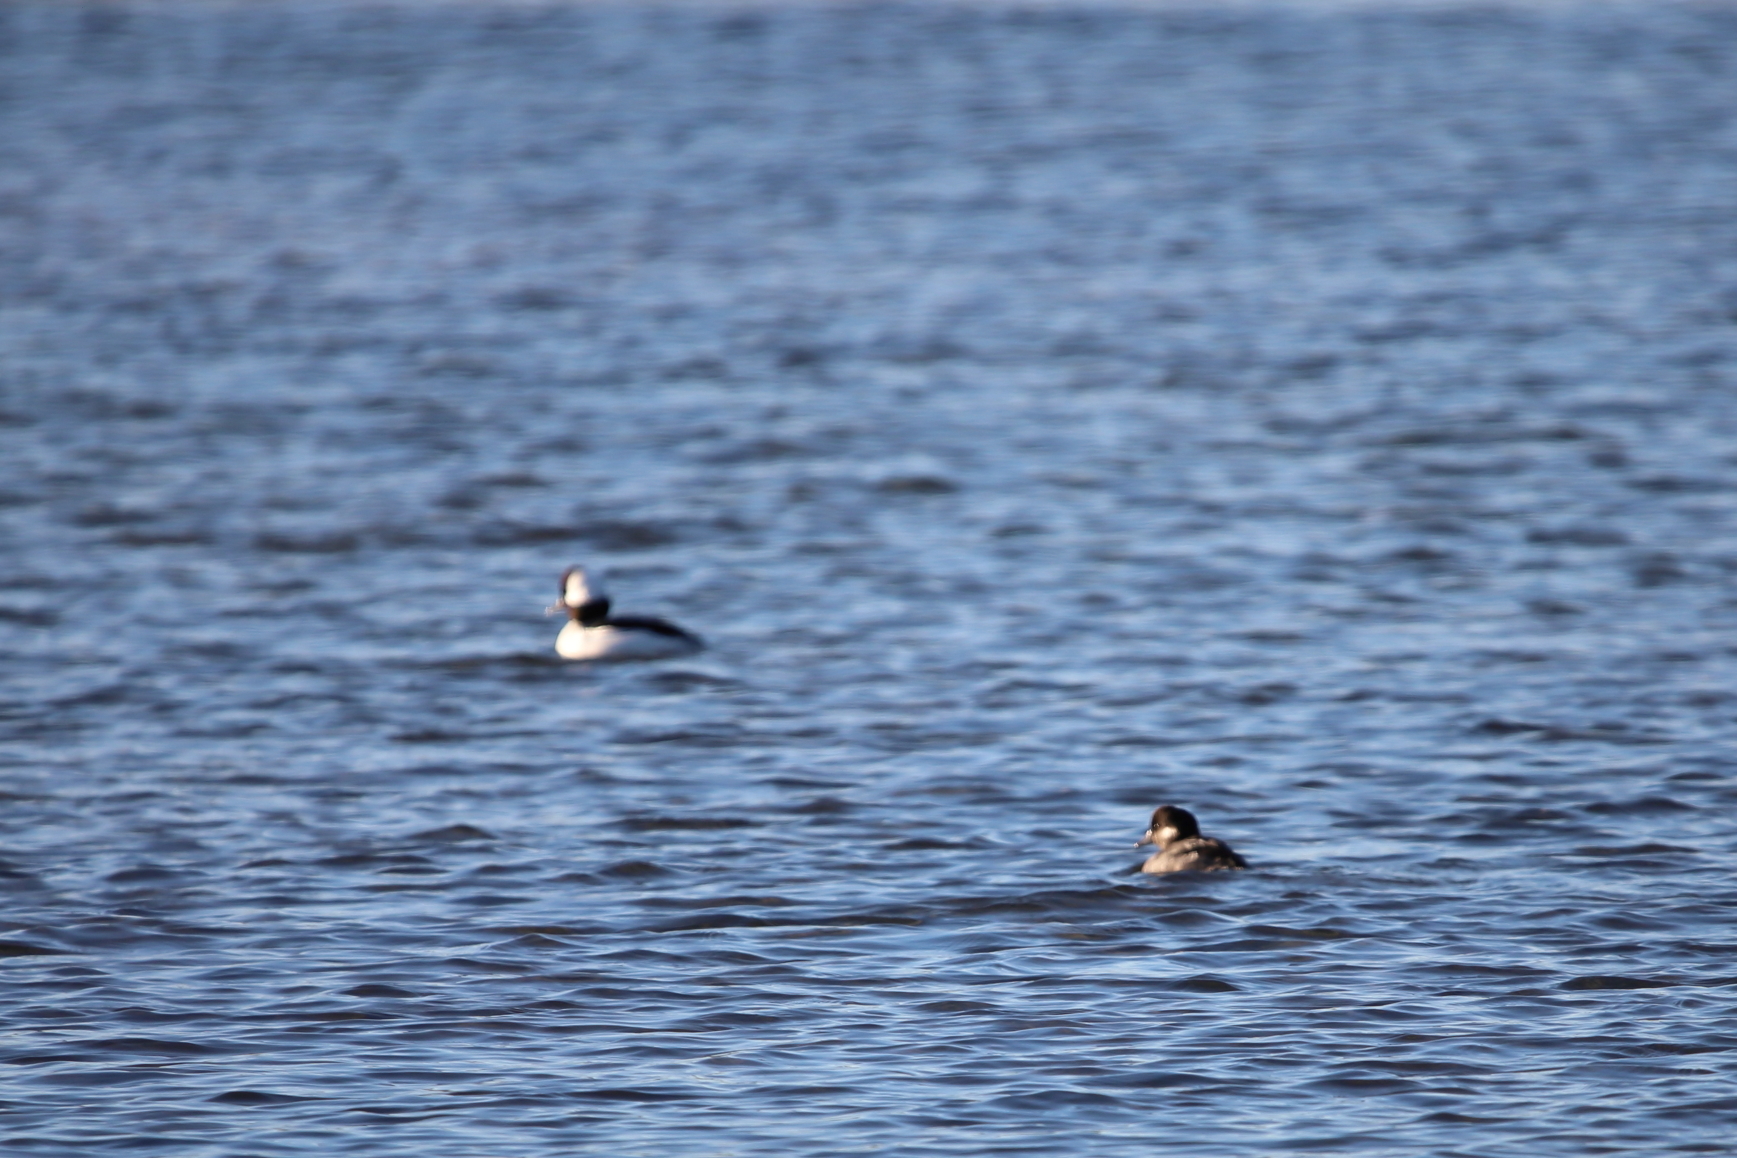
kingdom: Animalia
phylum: Chordata
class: Aves
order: Anseriformes
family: Anatidae
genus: Bucephala
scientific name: Bucephala albeola
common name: Bufflehead
